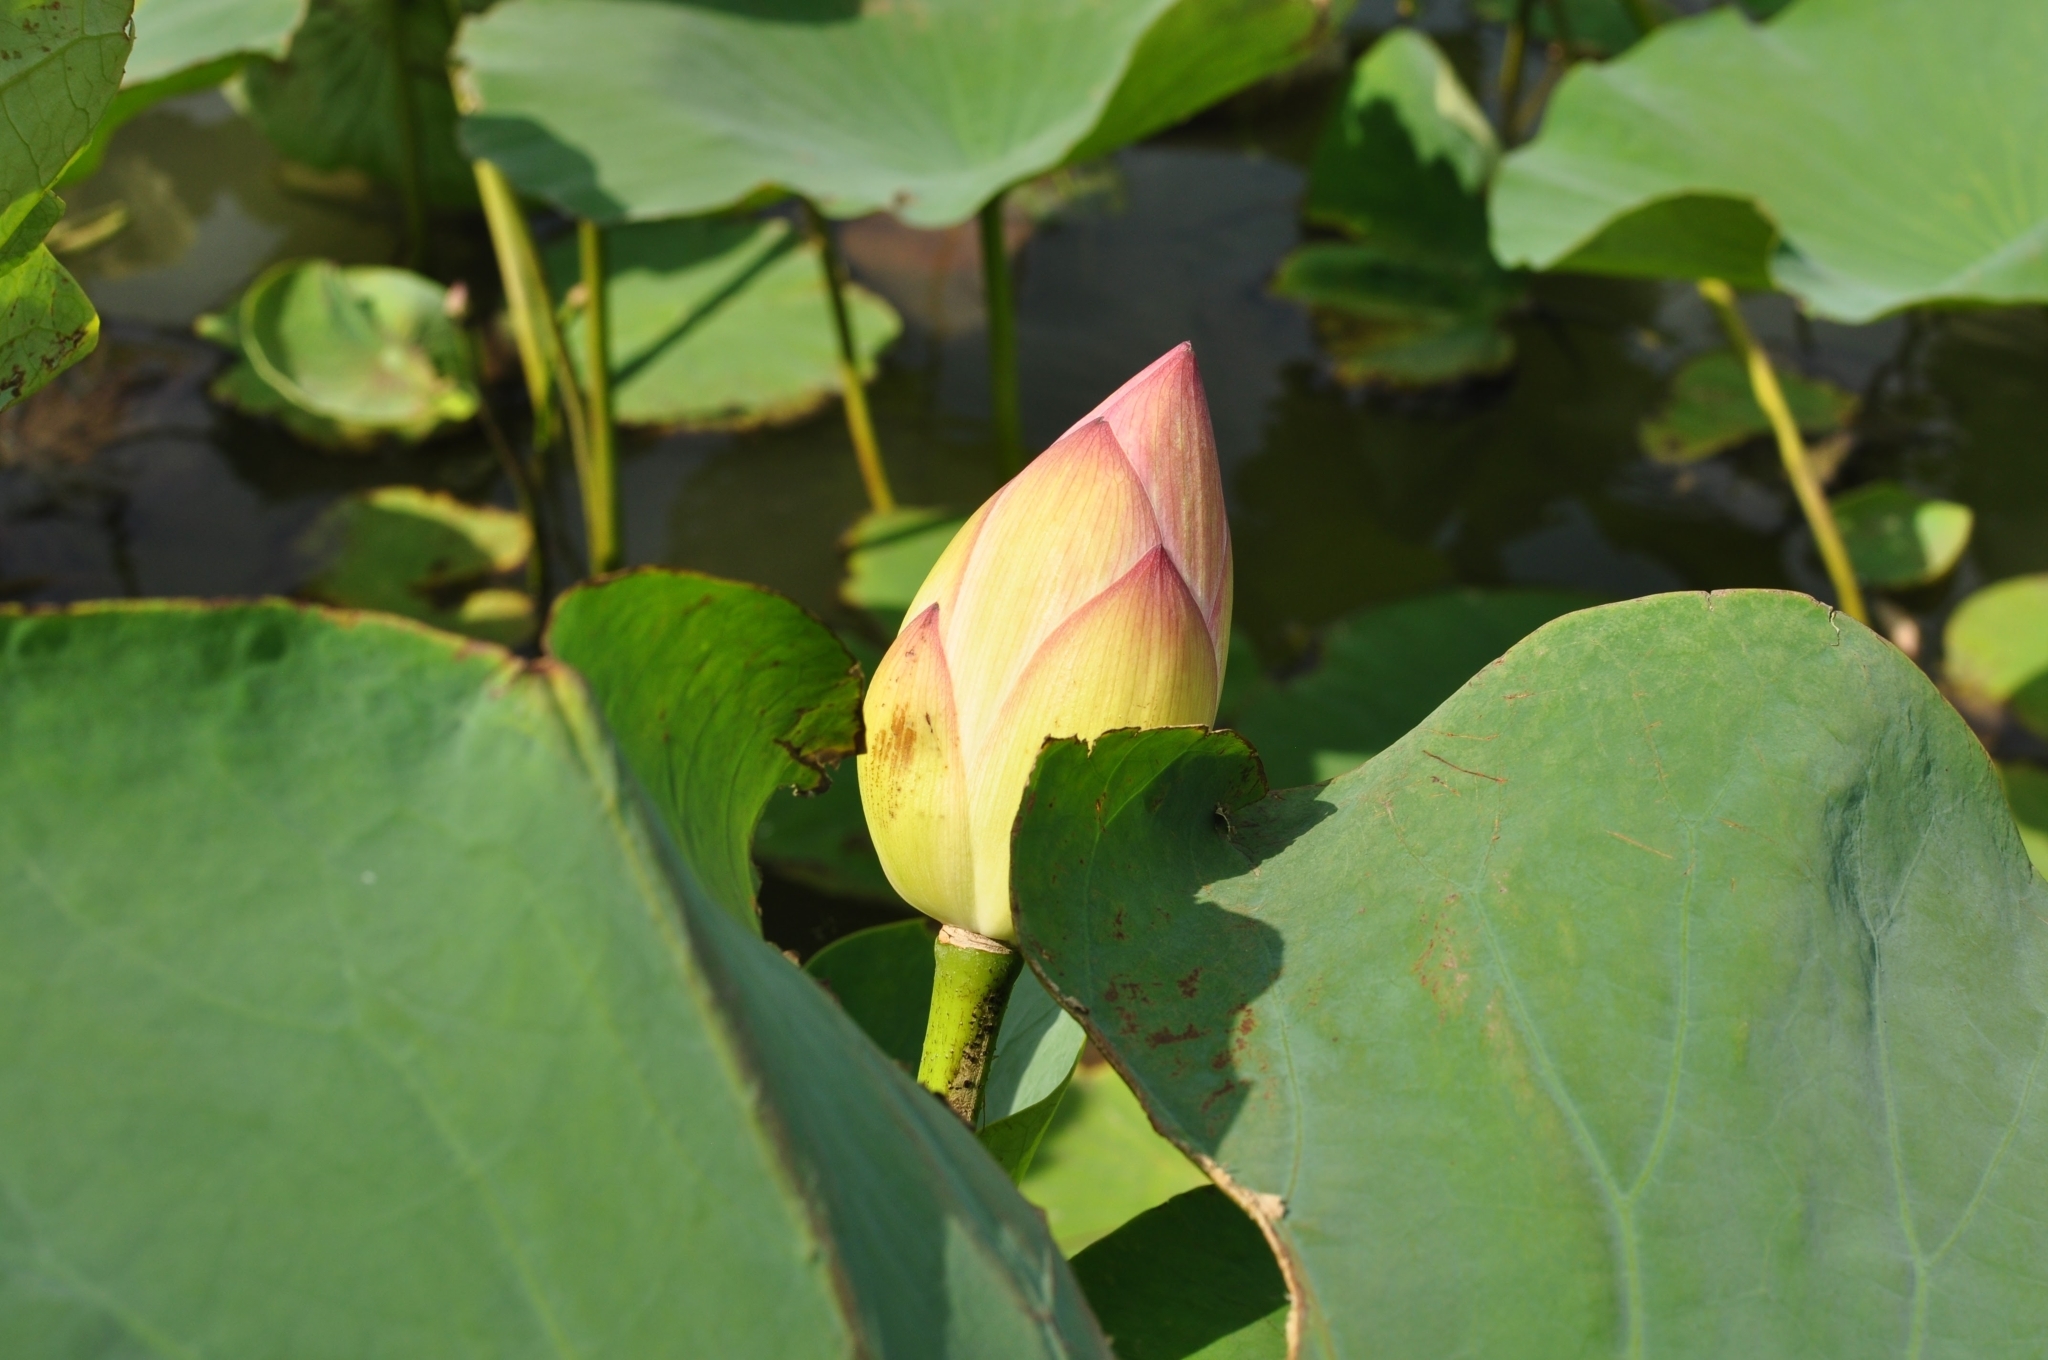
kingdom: Plantae
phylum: Tracheophyta
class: Magnoliopsida
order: Proteales
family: Nelumbonaceae
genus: Nelumbo
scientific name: Nelumbo nucifera
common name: Sacred lotus
